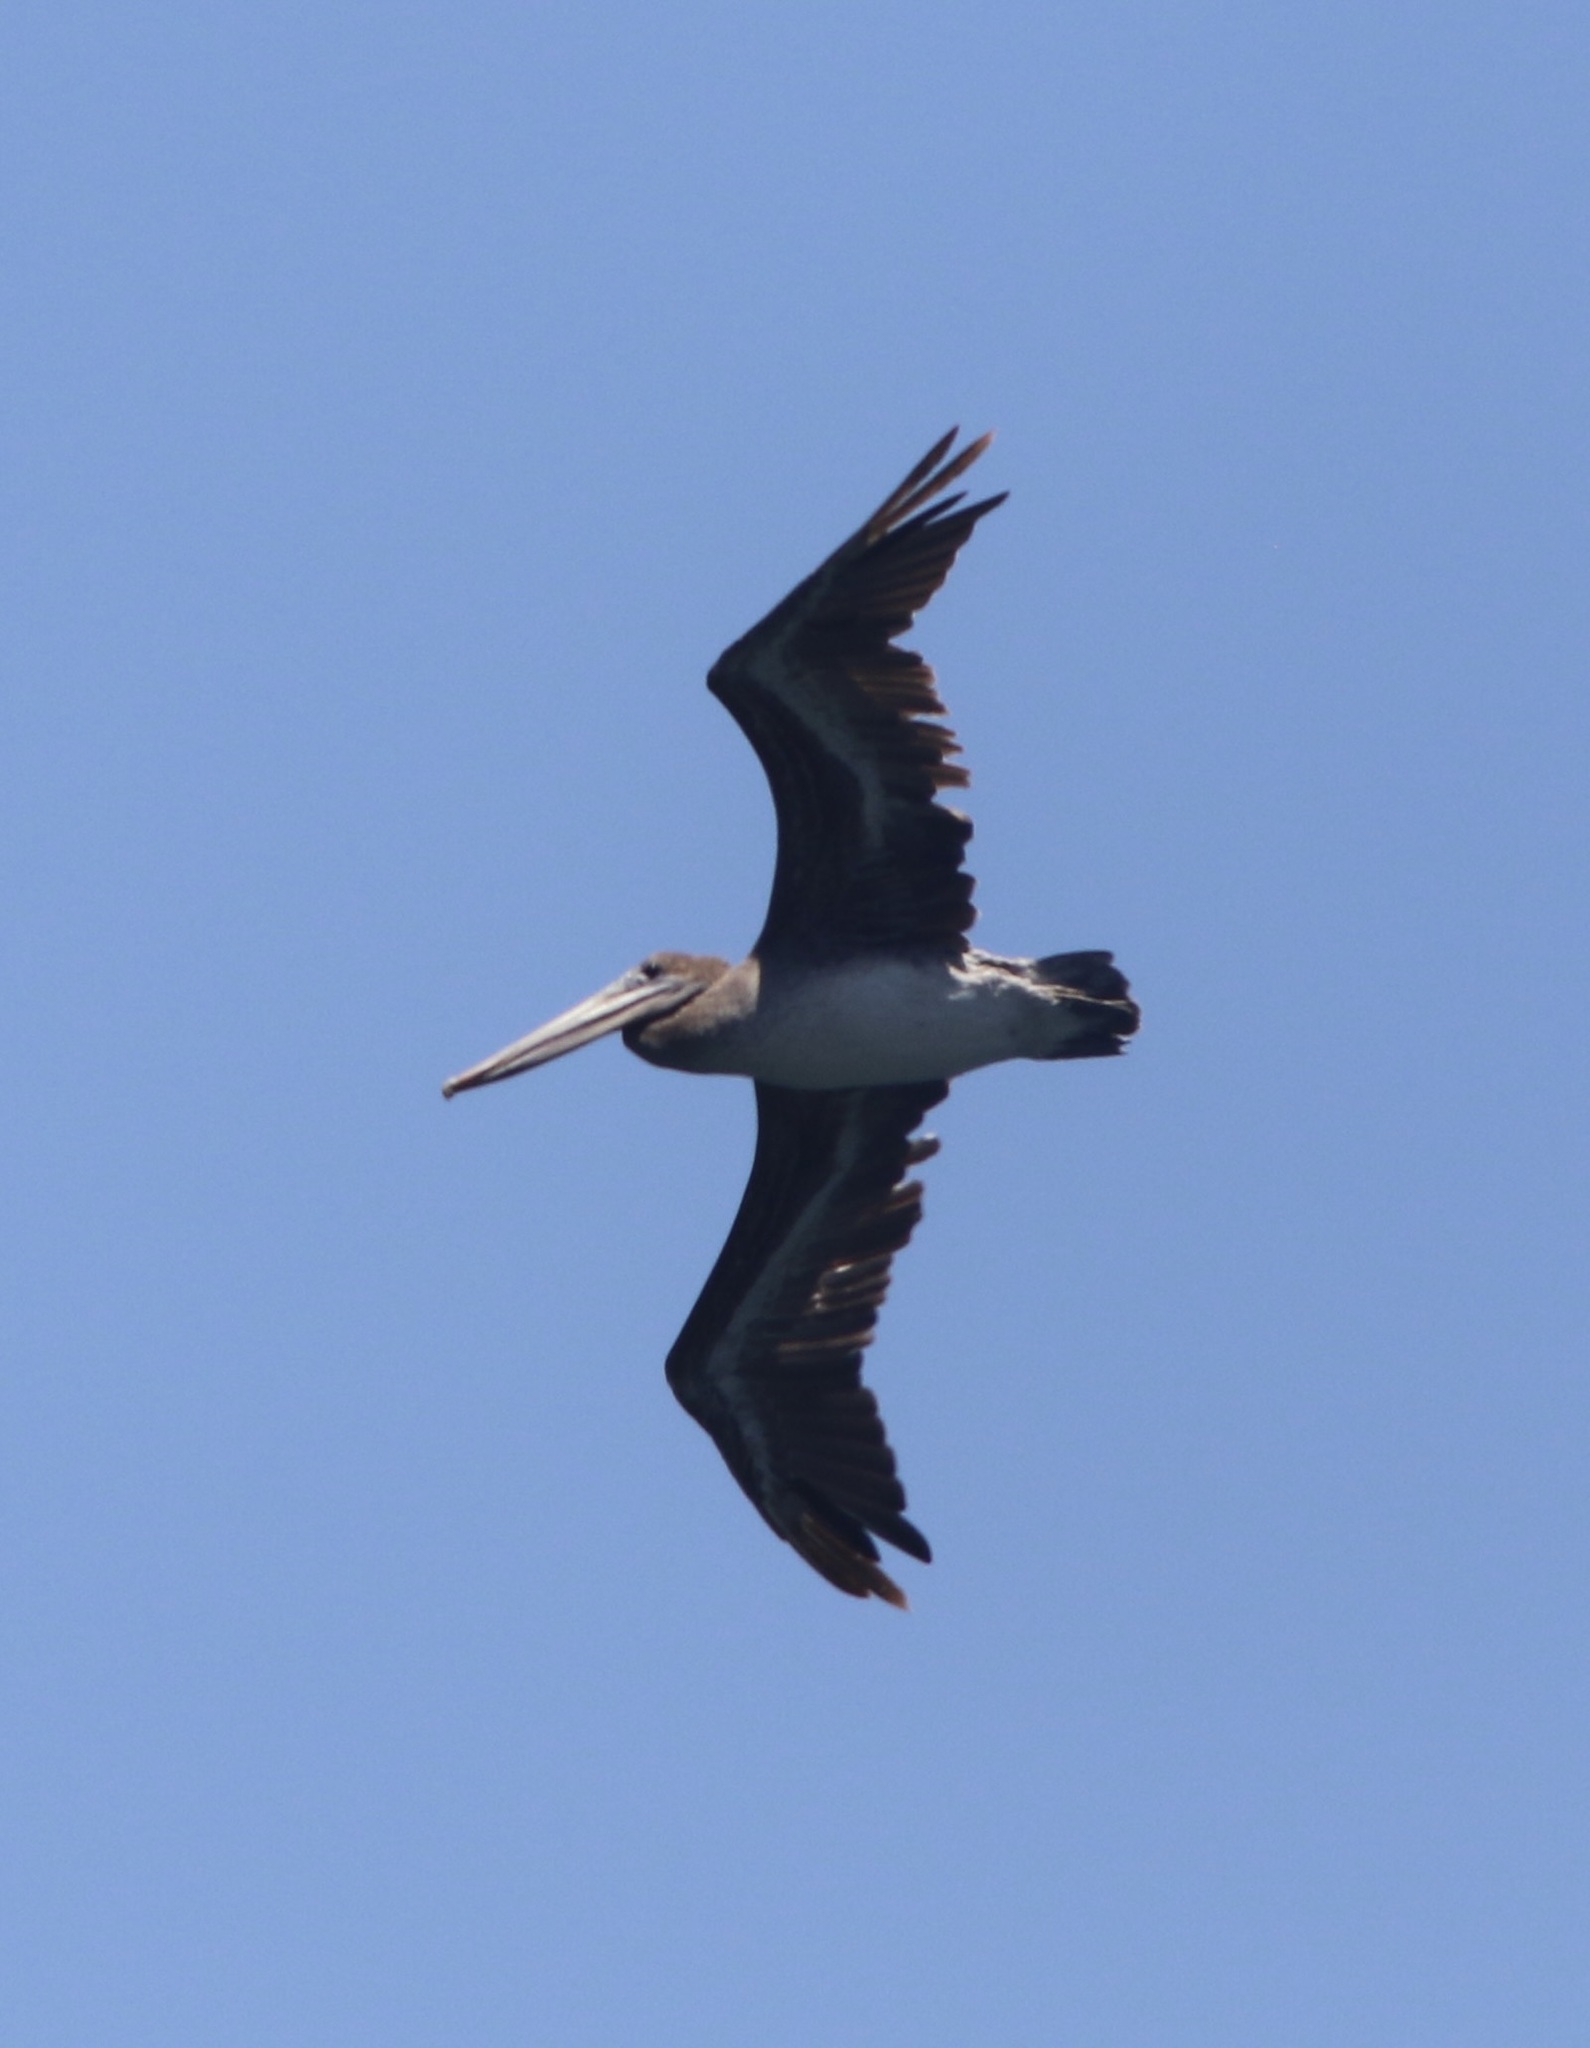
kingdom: Animalia
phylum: Chordata
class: Aves
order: Pelecaniformes
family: Pelecanidae
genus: Pelecanus
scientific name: Pelecanus occidentalis
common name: Brown pelican
